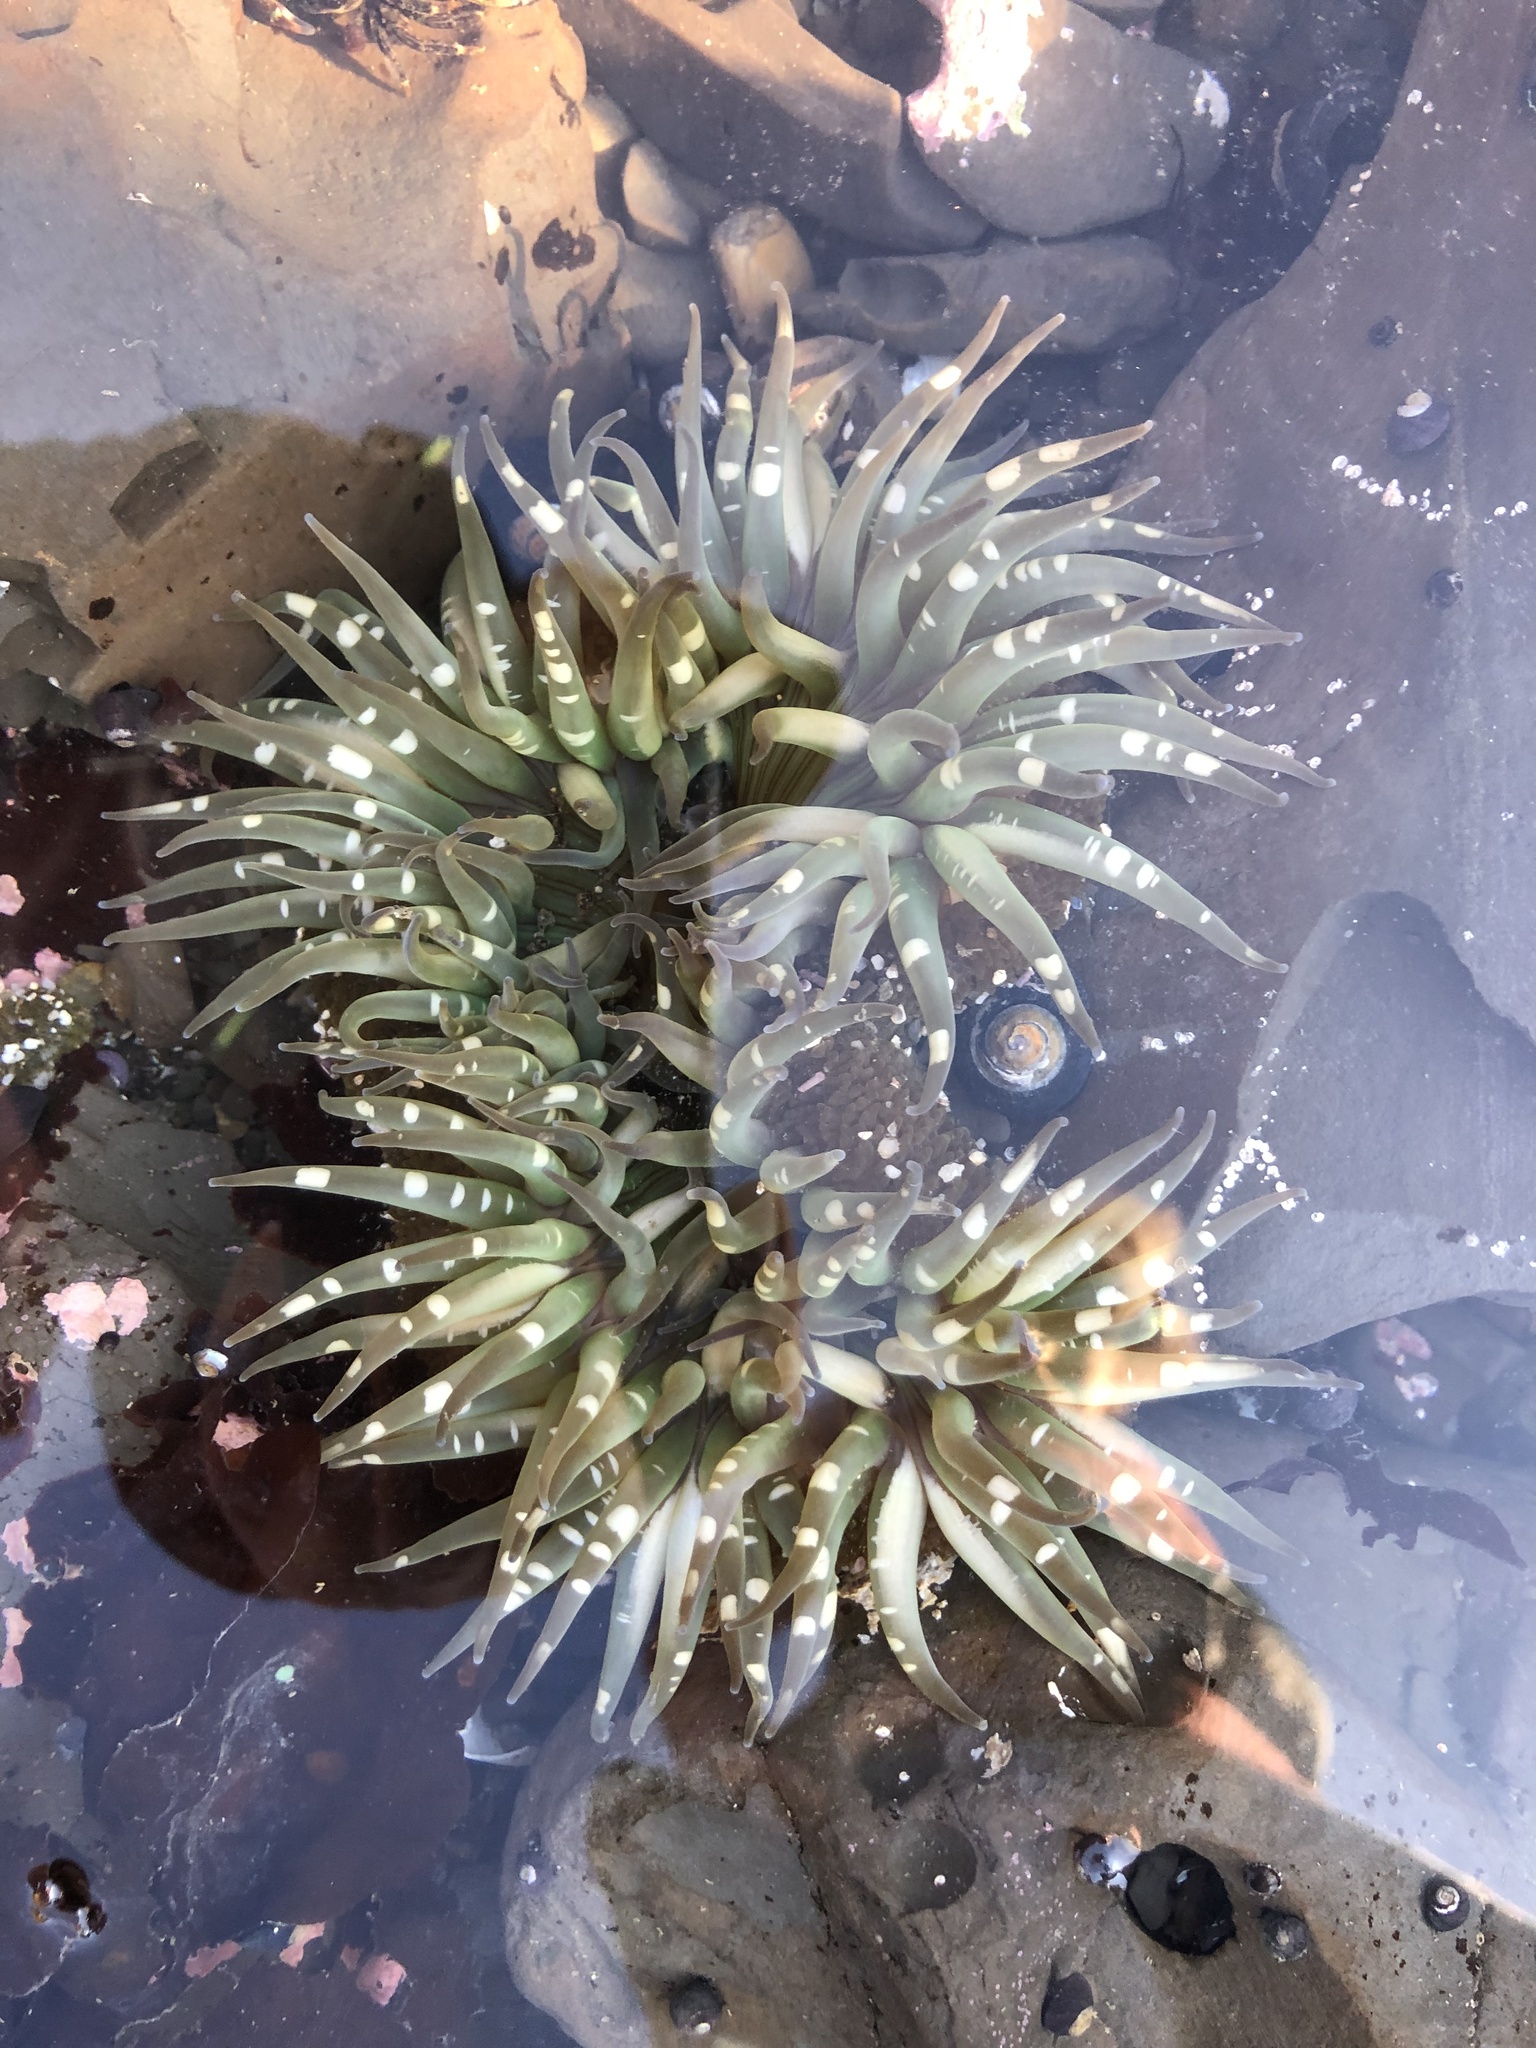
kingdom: Animalia
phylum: Cnidaria
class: Anthozoa
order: Actiniaria
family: Actiniidae
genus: Anthopleura
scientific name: Anthopleura sola
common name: Sun anemone
